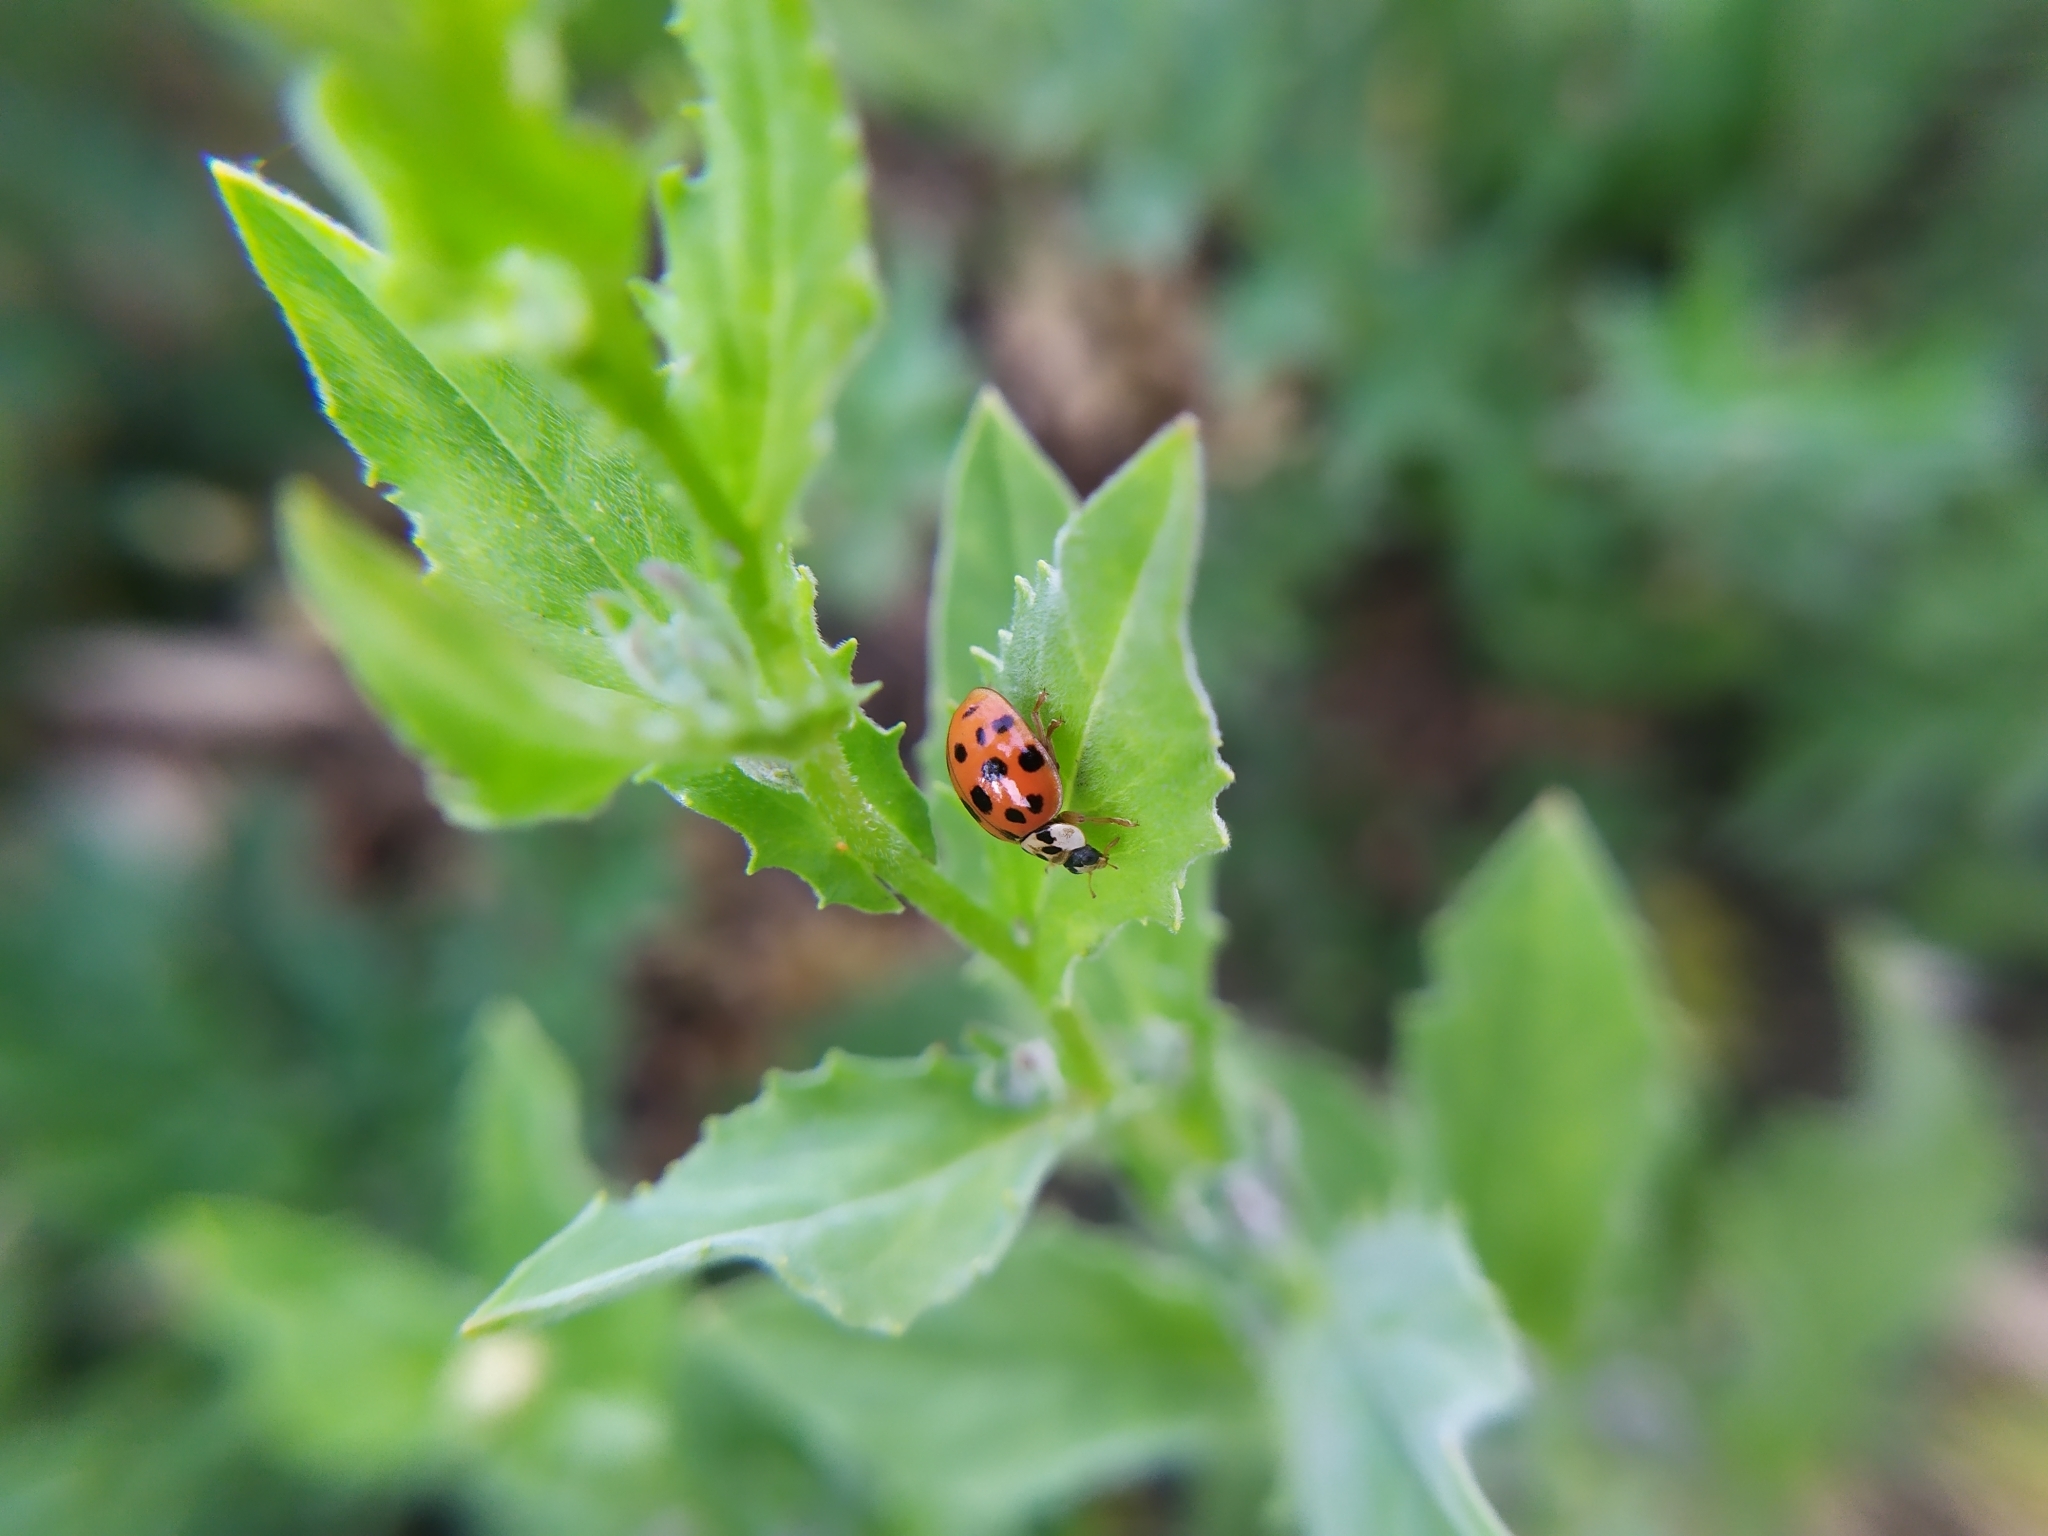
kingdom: Animalia
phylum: Arthropoda
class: Insecta
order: Coleoptera
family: Coccinellidae
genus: Harmonia
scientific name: Harmonia axyridis
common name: Harlequin ladybird
